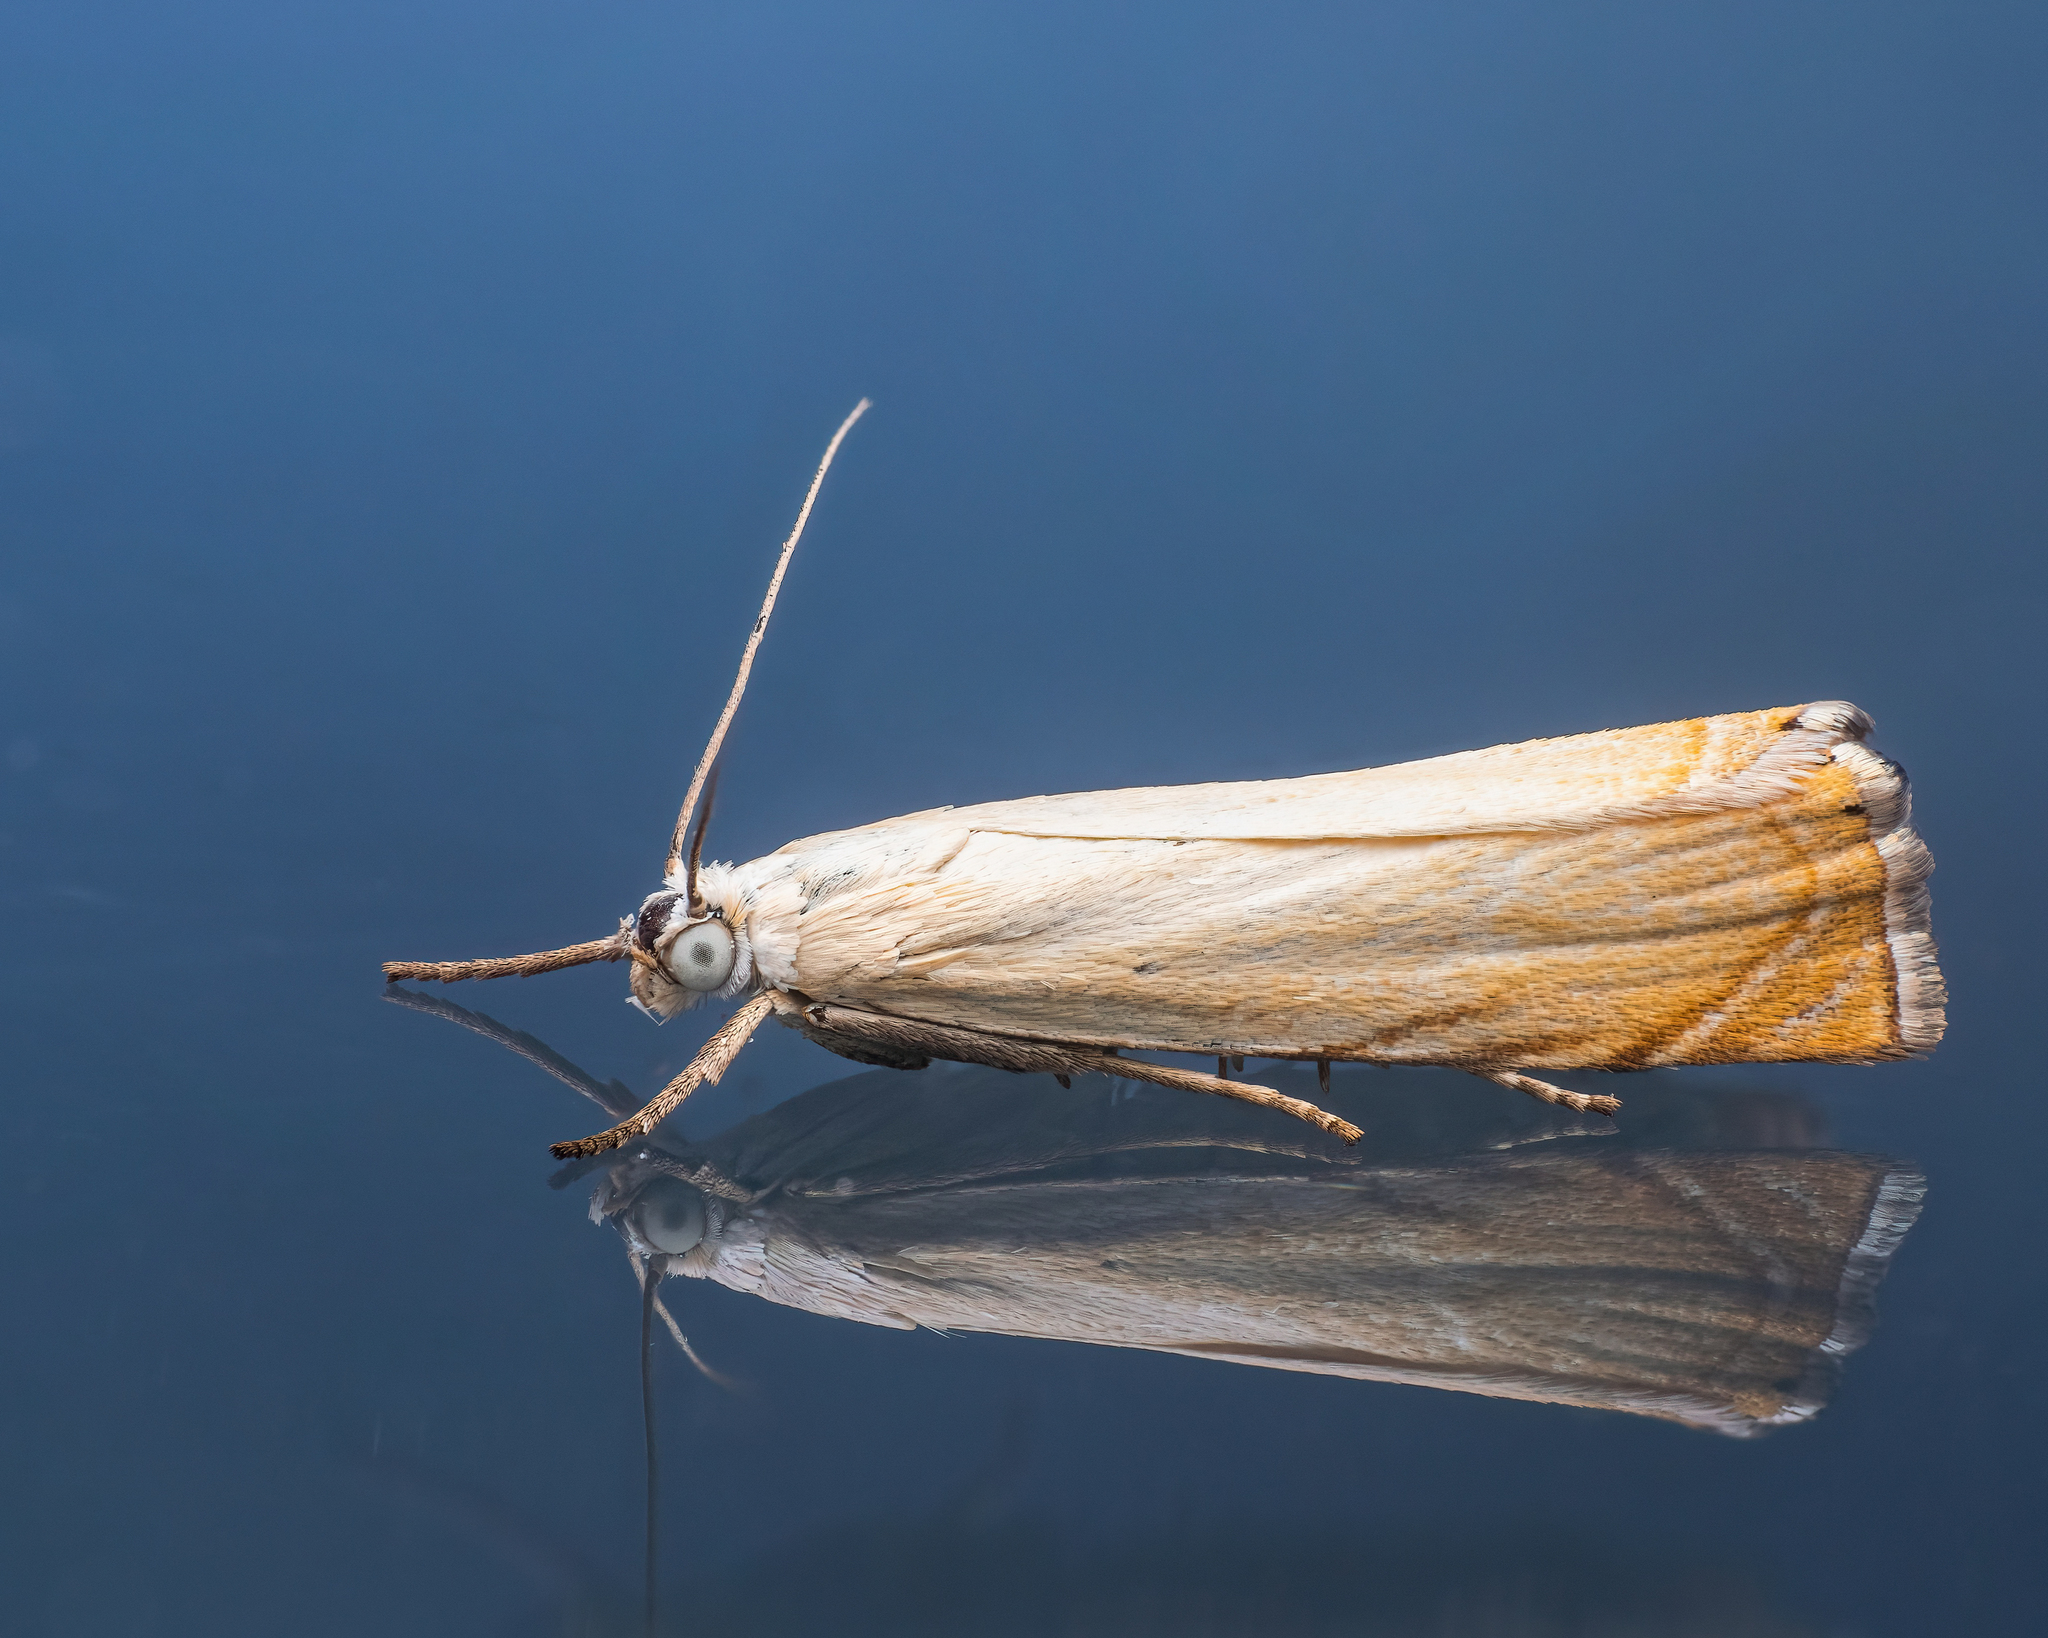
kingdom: Animalia
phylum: Arthropoda
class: Insecta
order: Lepidoptera
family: Crambidae
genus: Chrysoteuchia
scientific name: Chrysoteuchia culmella
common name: Garden grass-veneer
